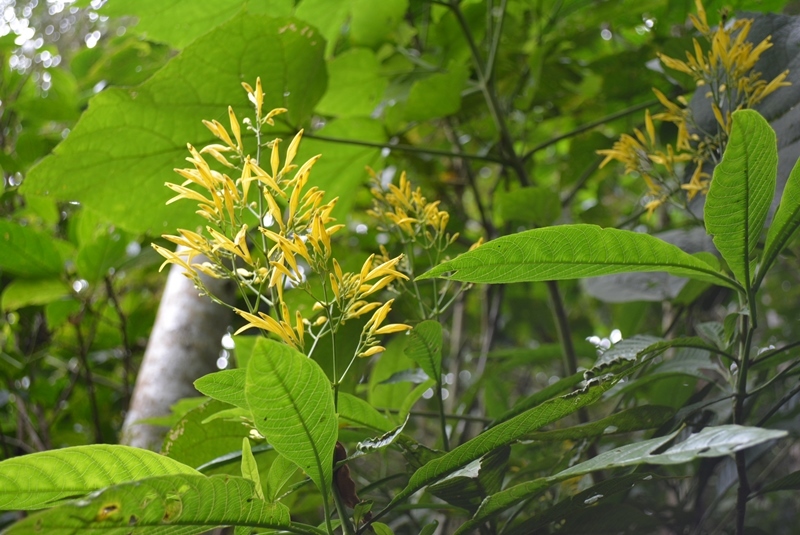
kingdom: Plantae
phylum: Tracheophyta
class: Magnoliopsida
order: Lamiales
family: Acanthaceae
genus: Justicia
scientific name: Justicia turipachensis
